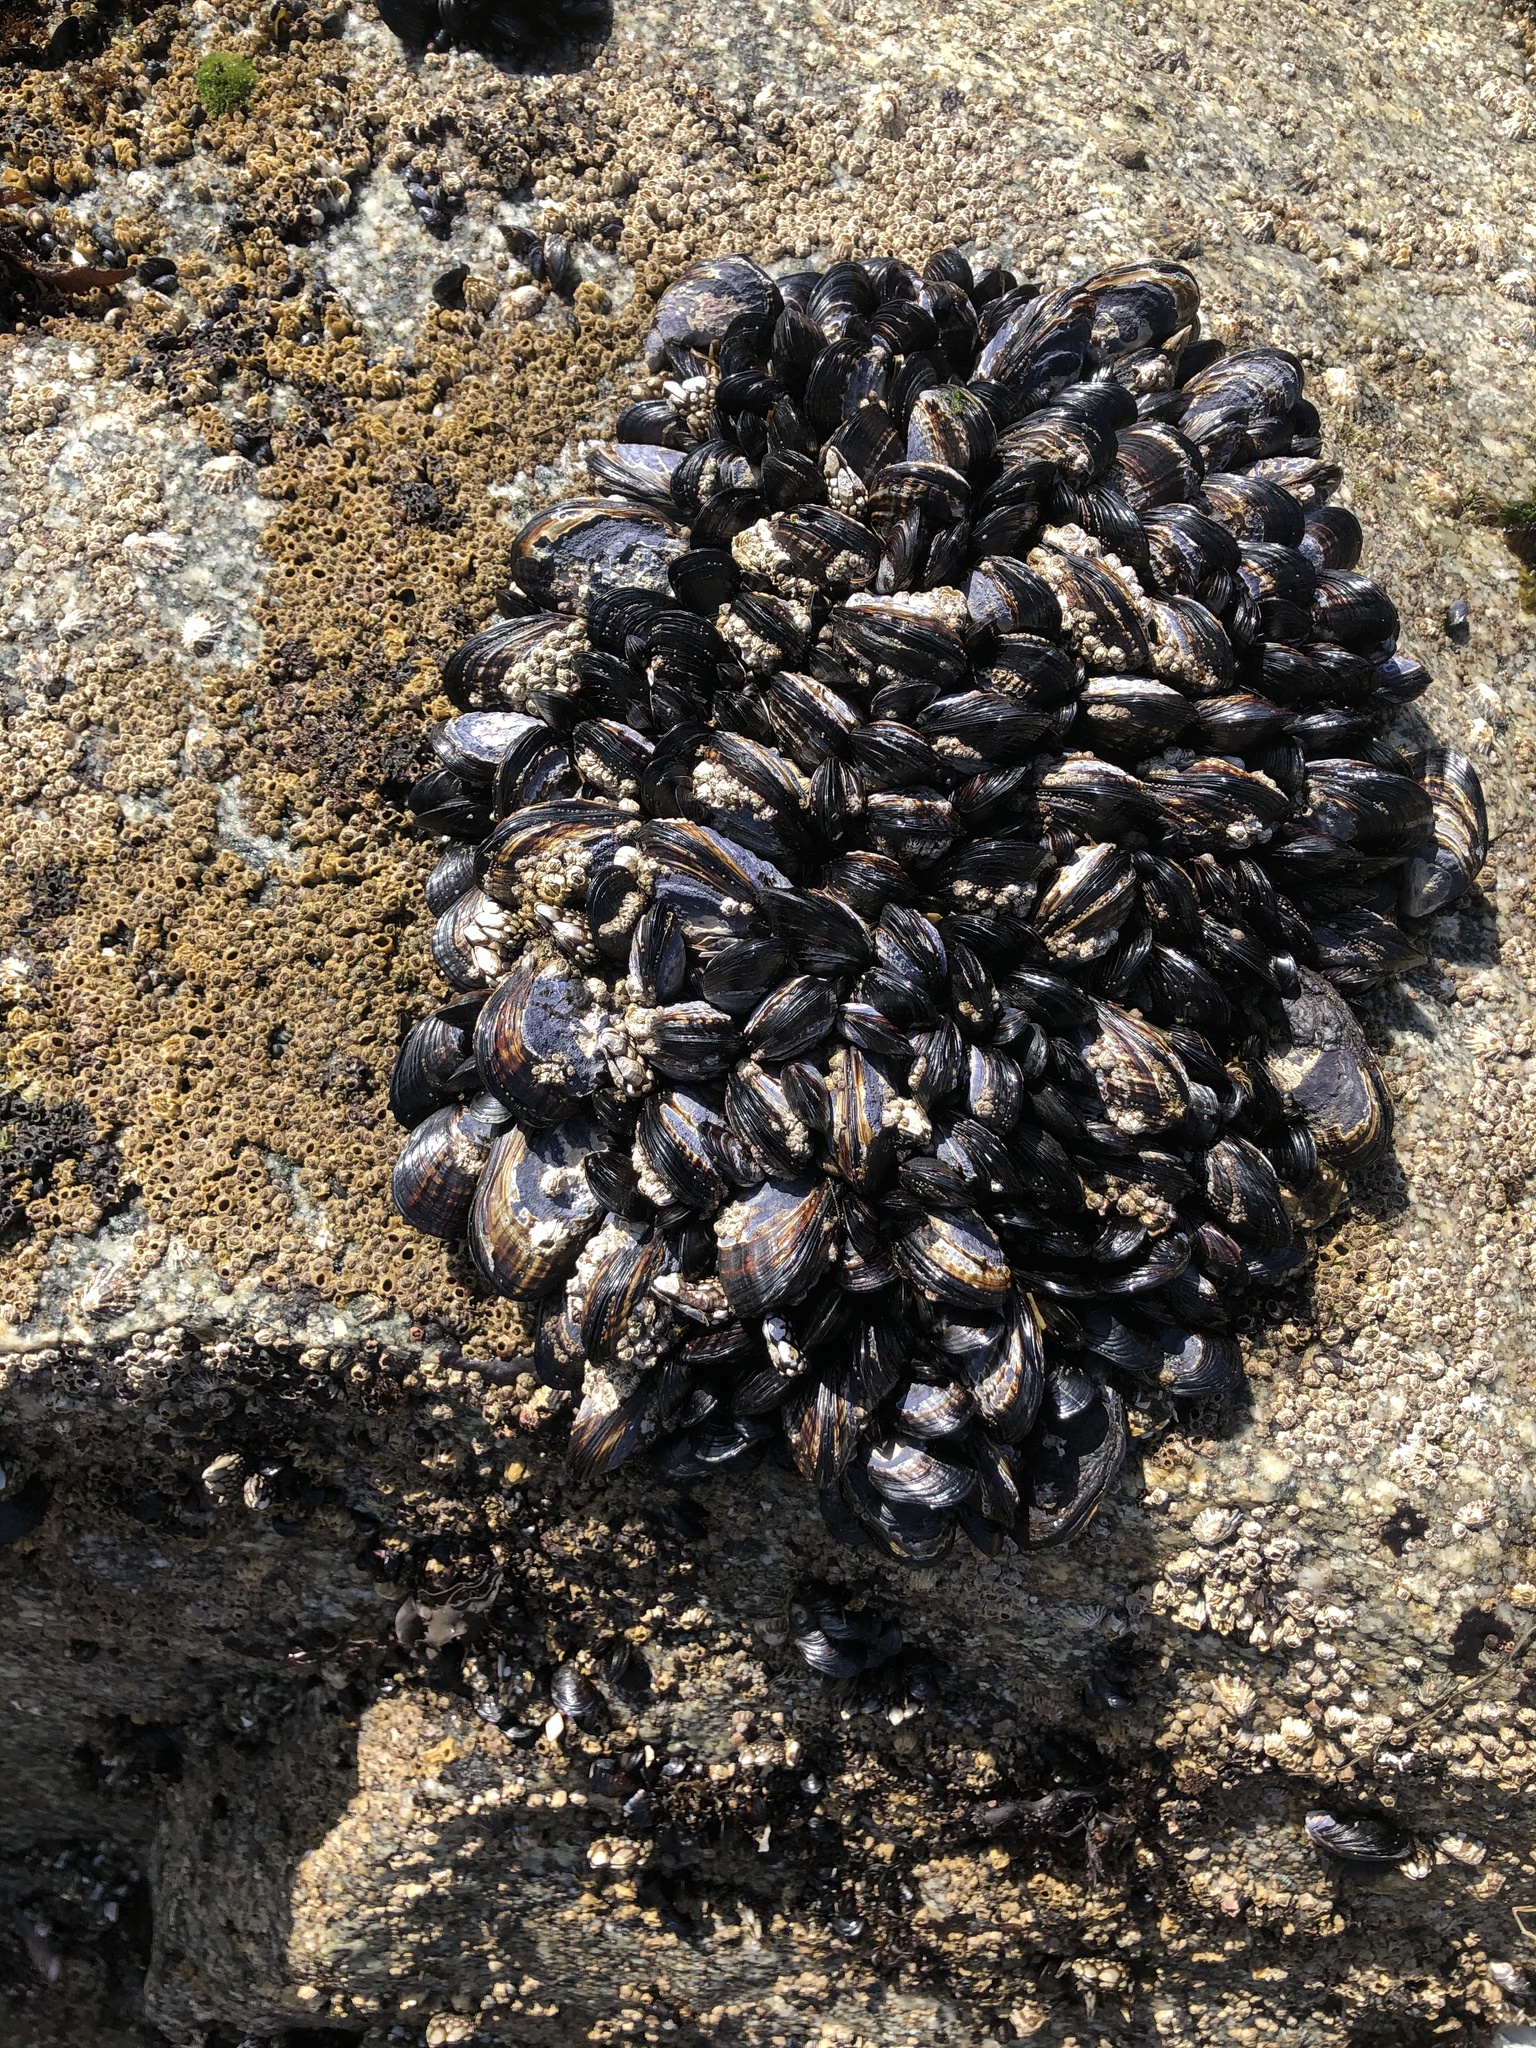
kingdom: Animalia
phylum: Mollusca
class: Bivalvia
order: Mytilida
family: Mytilidae
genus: Mytilus
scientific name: Mytilus californianus
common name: California mussel
